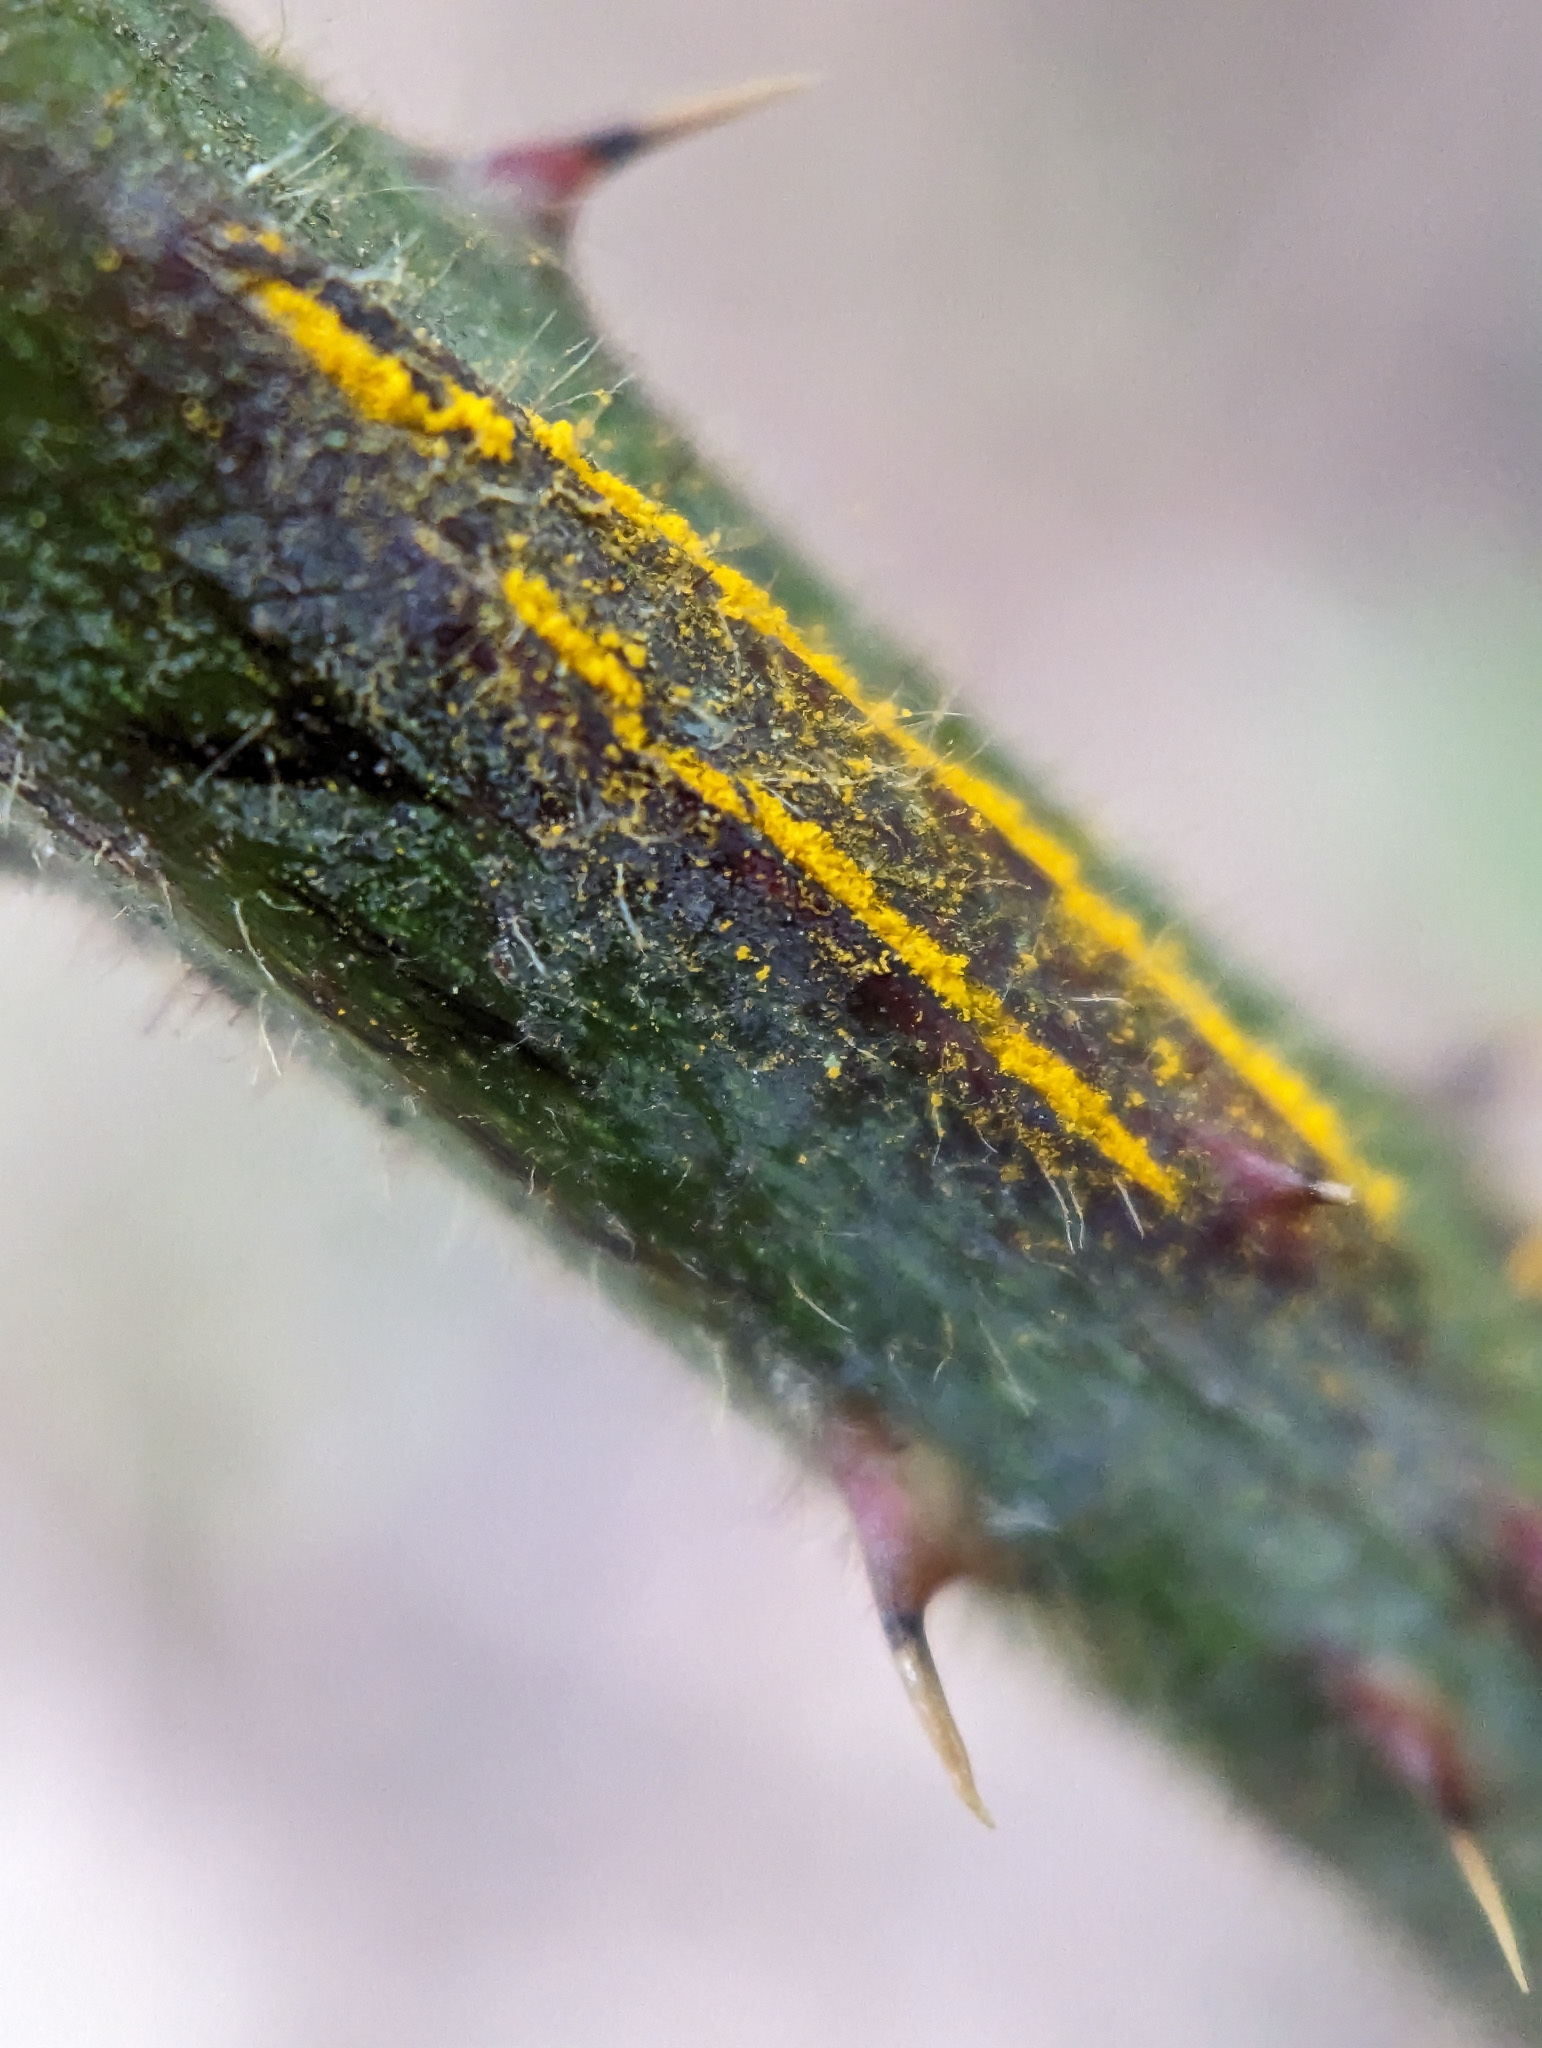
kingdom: Fungi
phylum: Basidiomycota
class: Pucciniomycetes
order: Pucciniales
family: Phragmidiaceae
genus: Kuehneola
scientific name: Kuehneola uredinis
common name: Bramble stem rust
